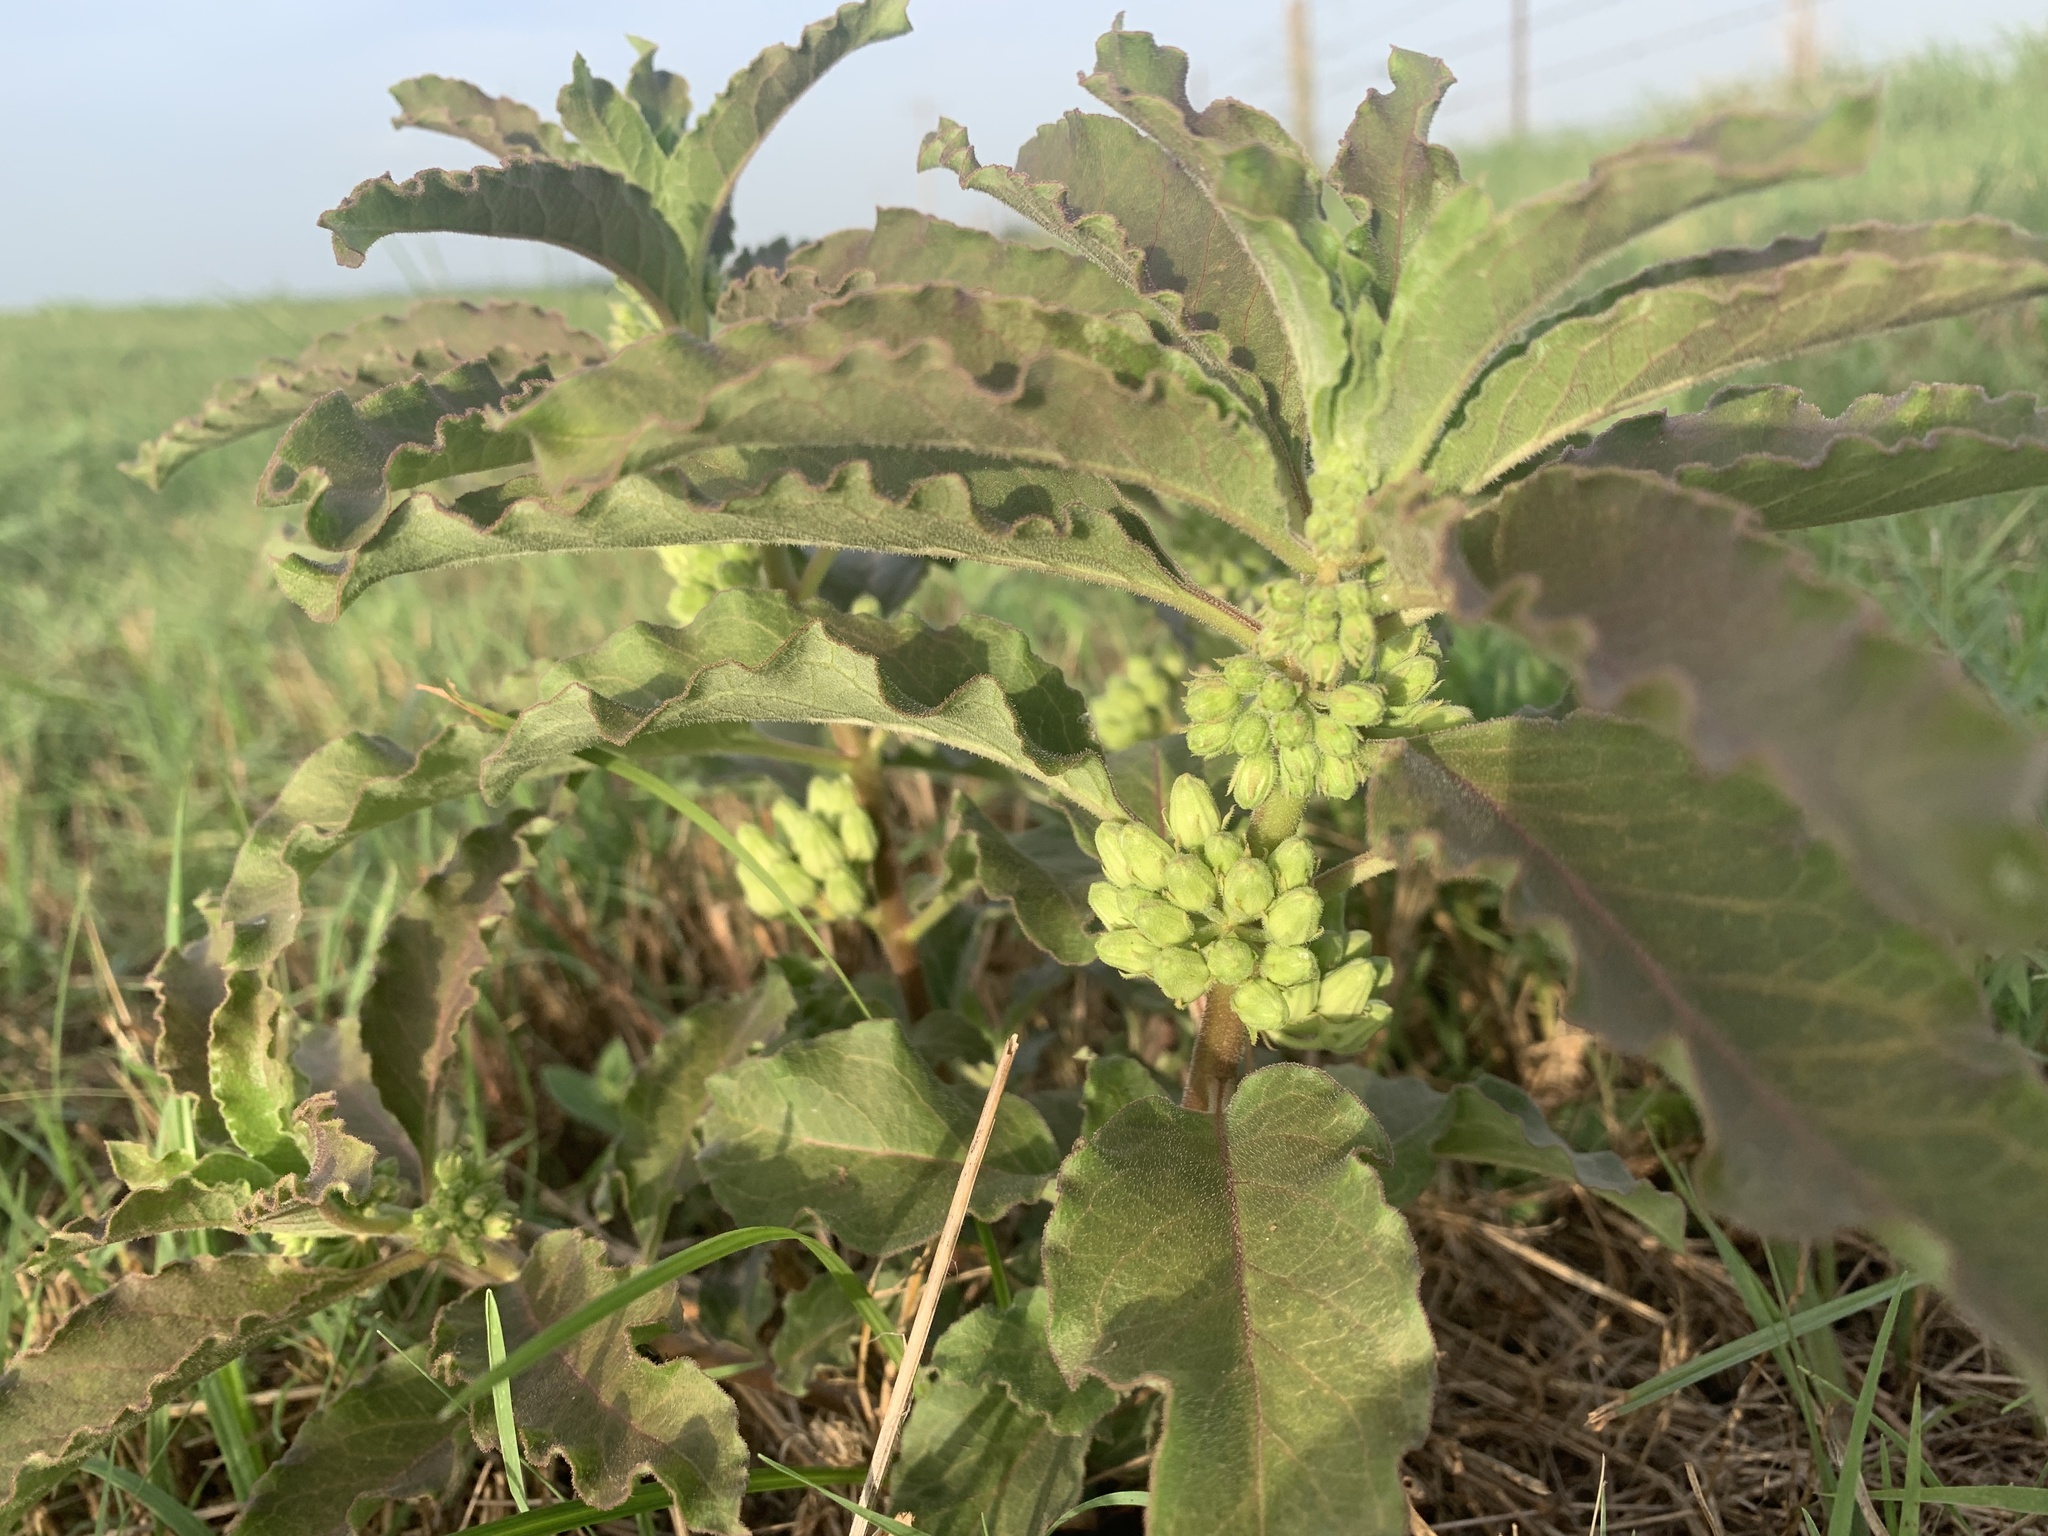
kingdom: Plantae
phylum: Tracheophyta
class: Magnoliopsida
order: Gentianales
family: Apocynaceae
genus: Asclepias
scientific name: Asclepias oenotheroides
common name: Zizotes milkweed
